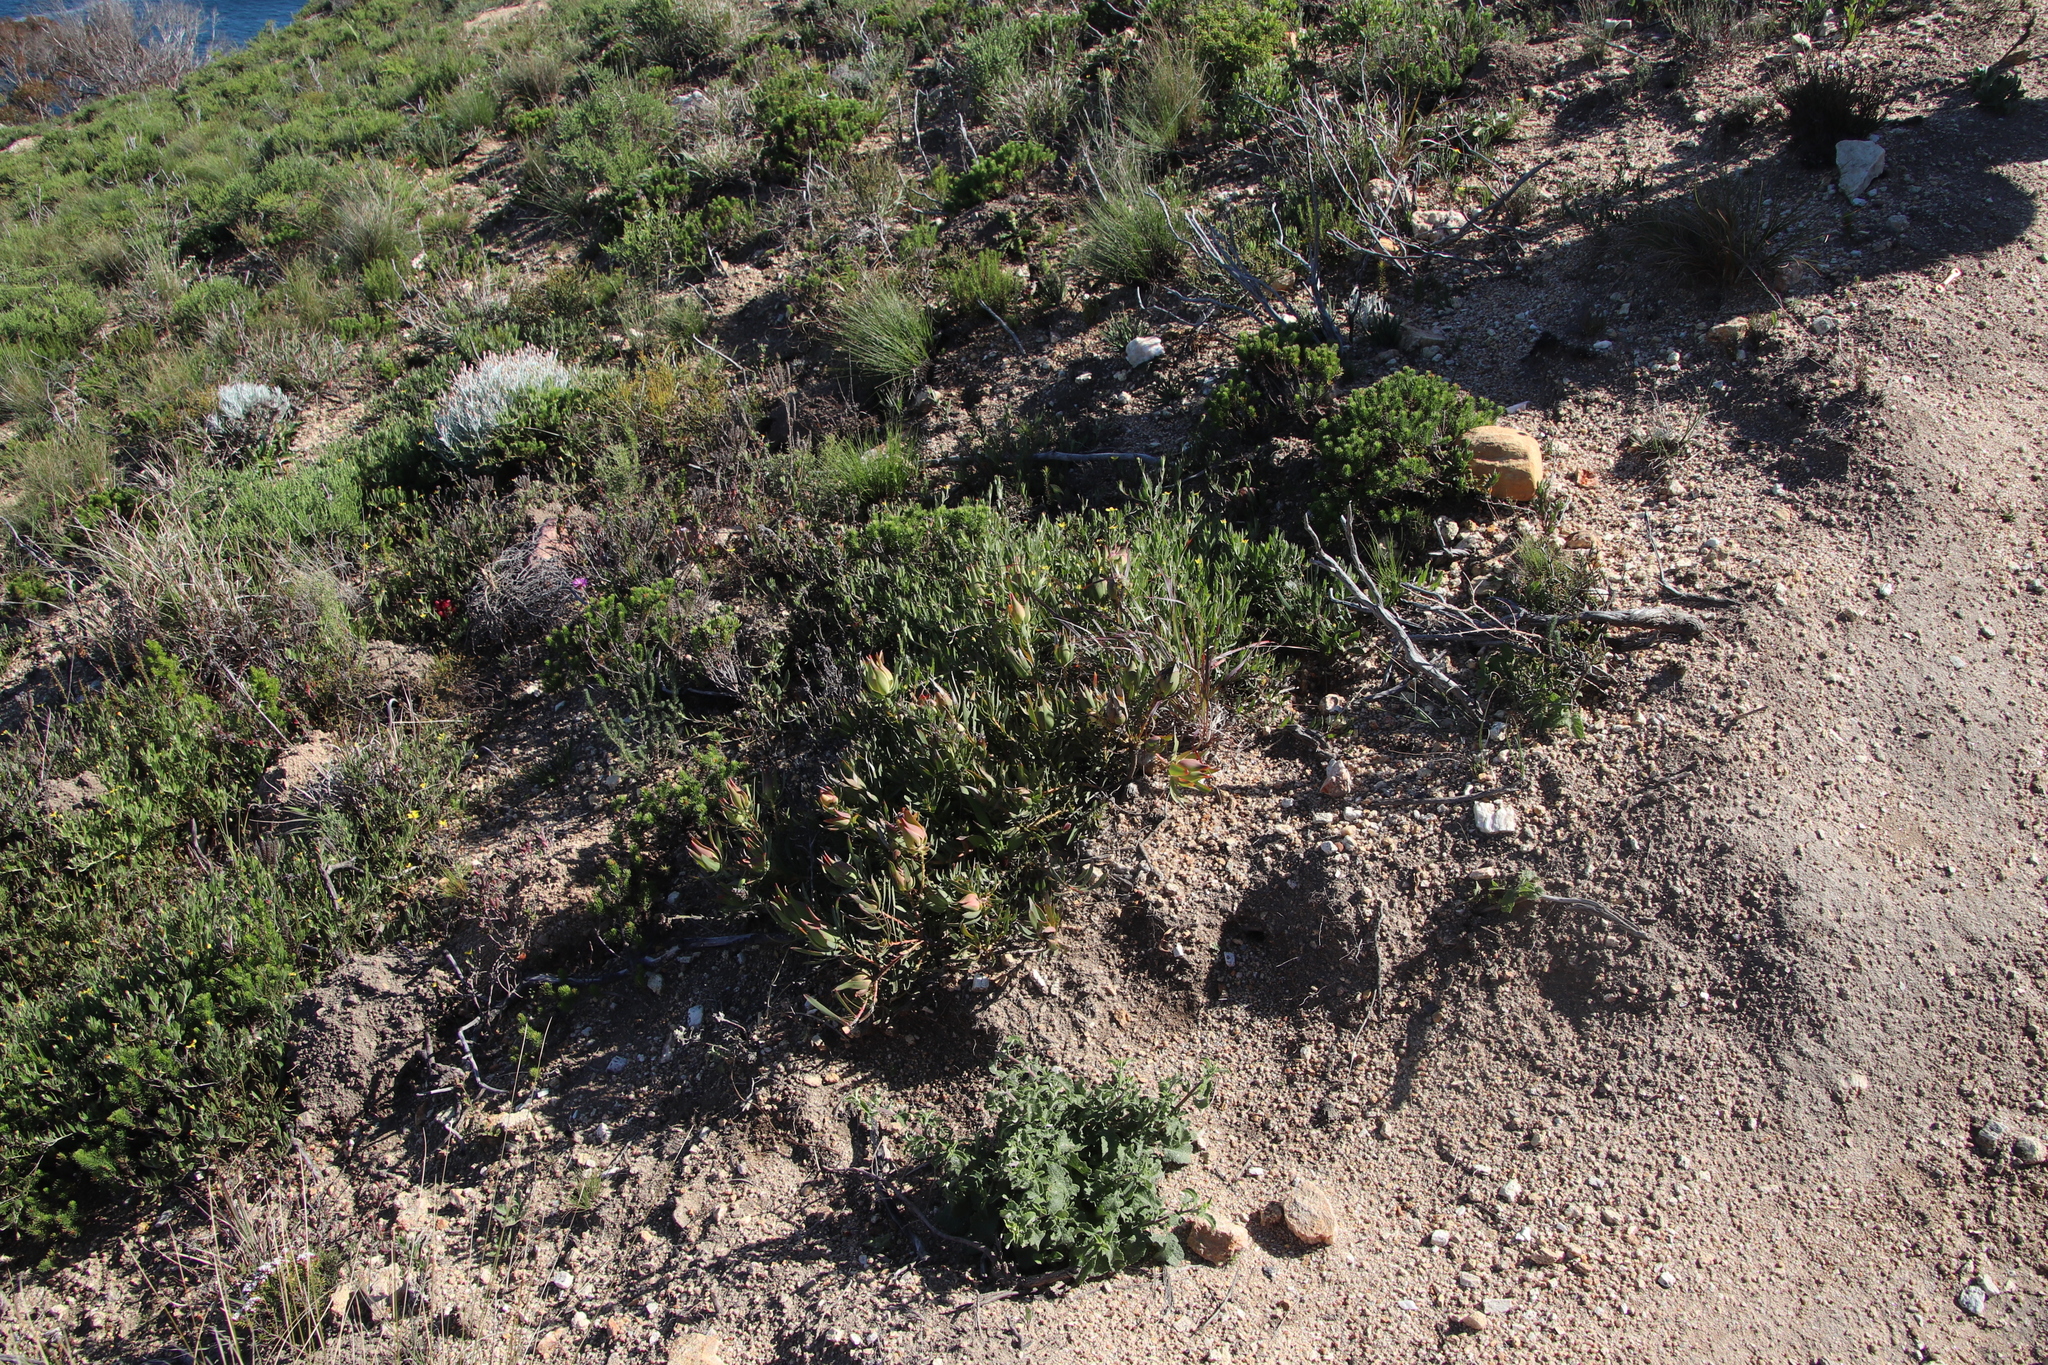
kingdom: Plantae
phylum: Tracheophyta
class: Magnoliopsida
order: Proteales
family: Proteaceae
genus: Leucadendron
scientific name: Leucadendron salignum
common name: Common sunshine conebush
